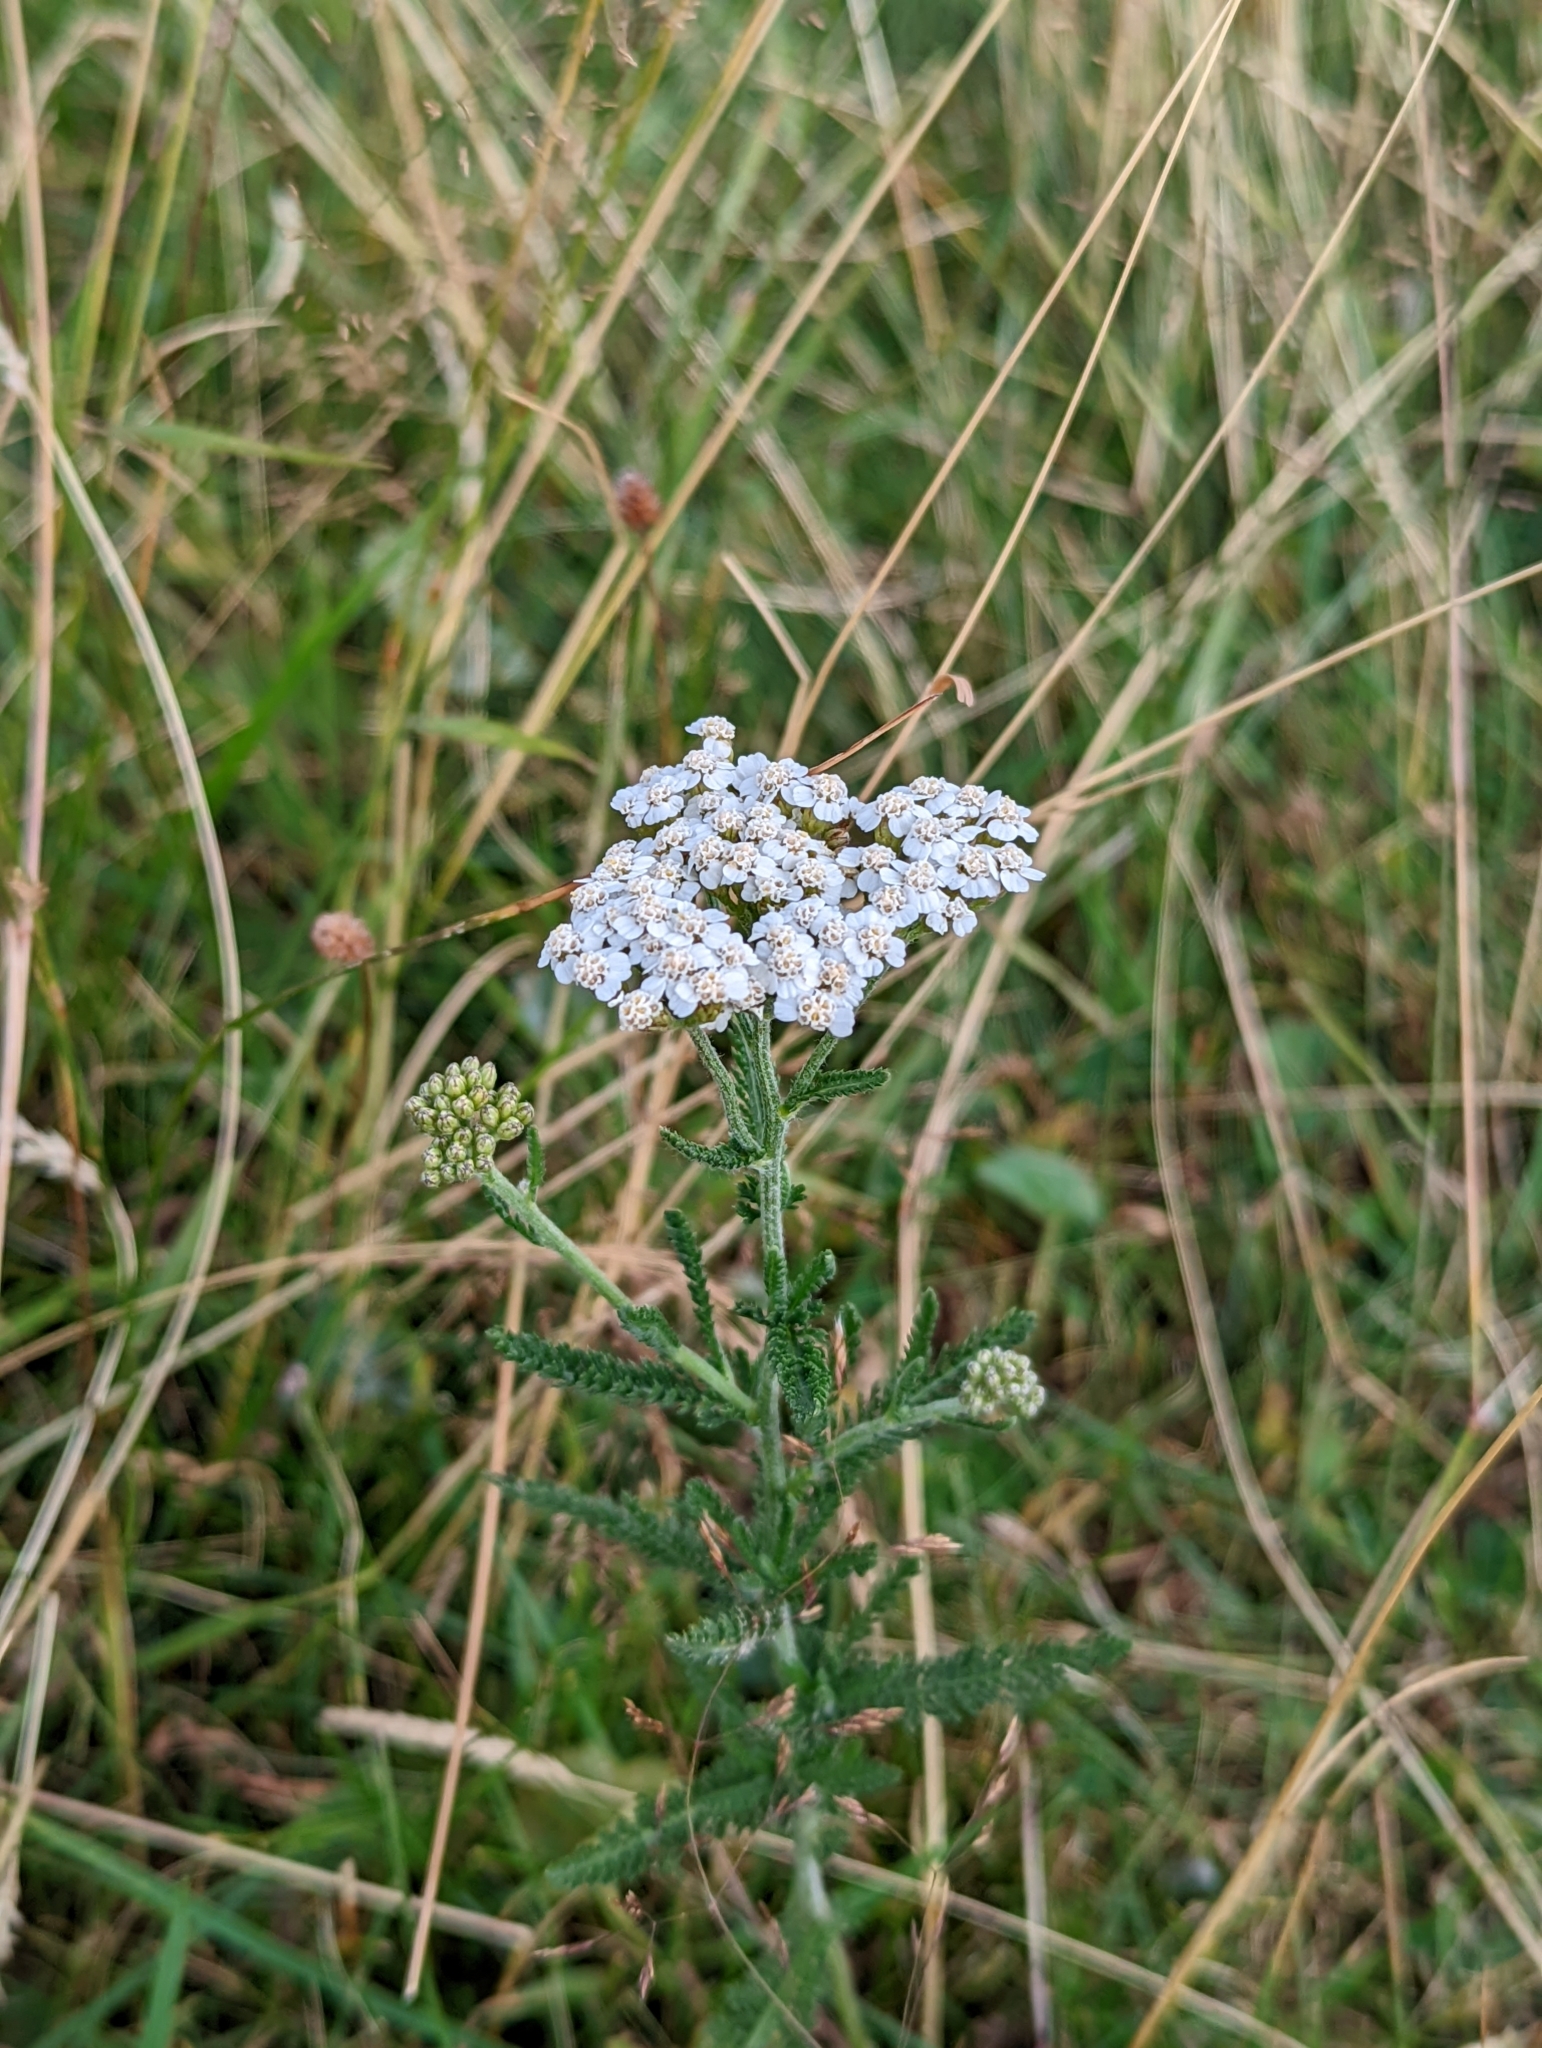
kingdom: Plantae
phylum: Tracheophyta
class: Magnoliopsida
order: Asterales
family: Asteraceae
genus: Achillea
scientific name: Achillea millefolium
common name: Yarrow
